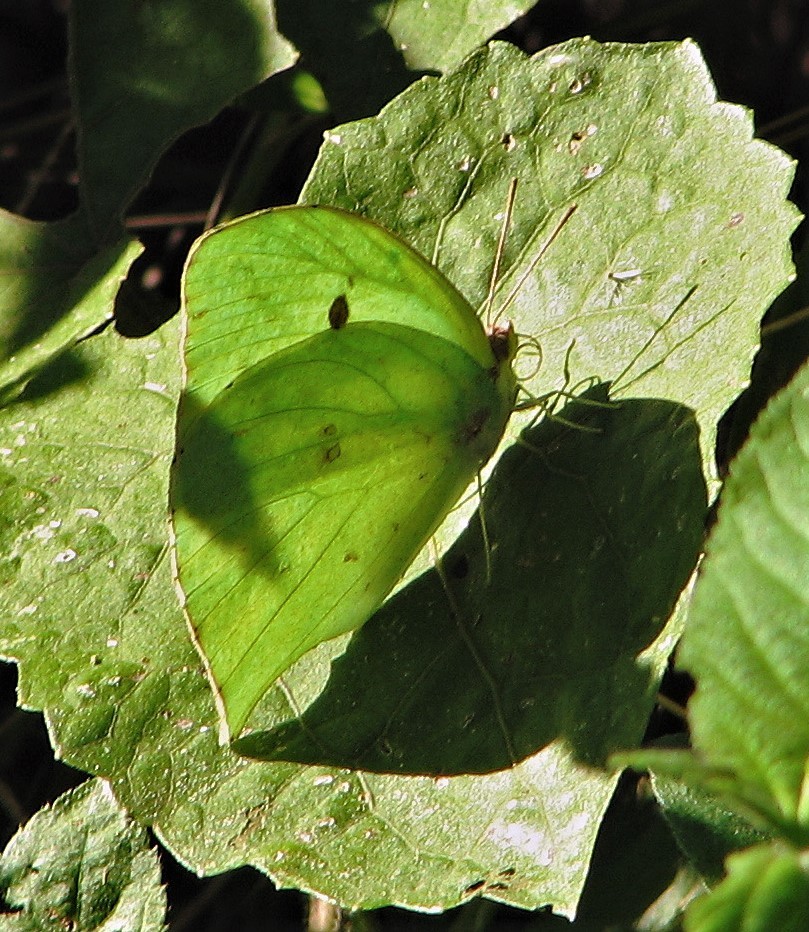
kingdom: Animalia
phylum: Arthropoda
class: Insecta
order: Lepidoptera
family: Pieridae
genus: Phoebis
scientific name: Phoebis neocypris
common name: Tailed sulphur
